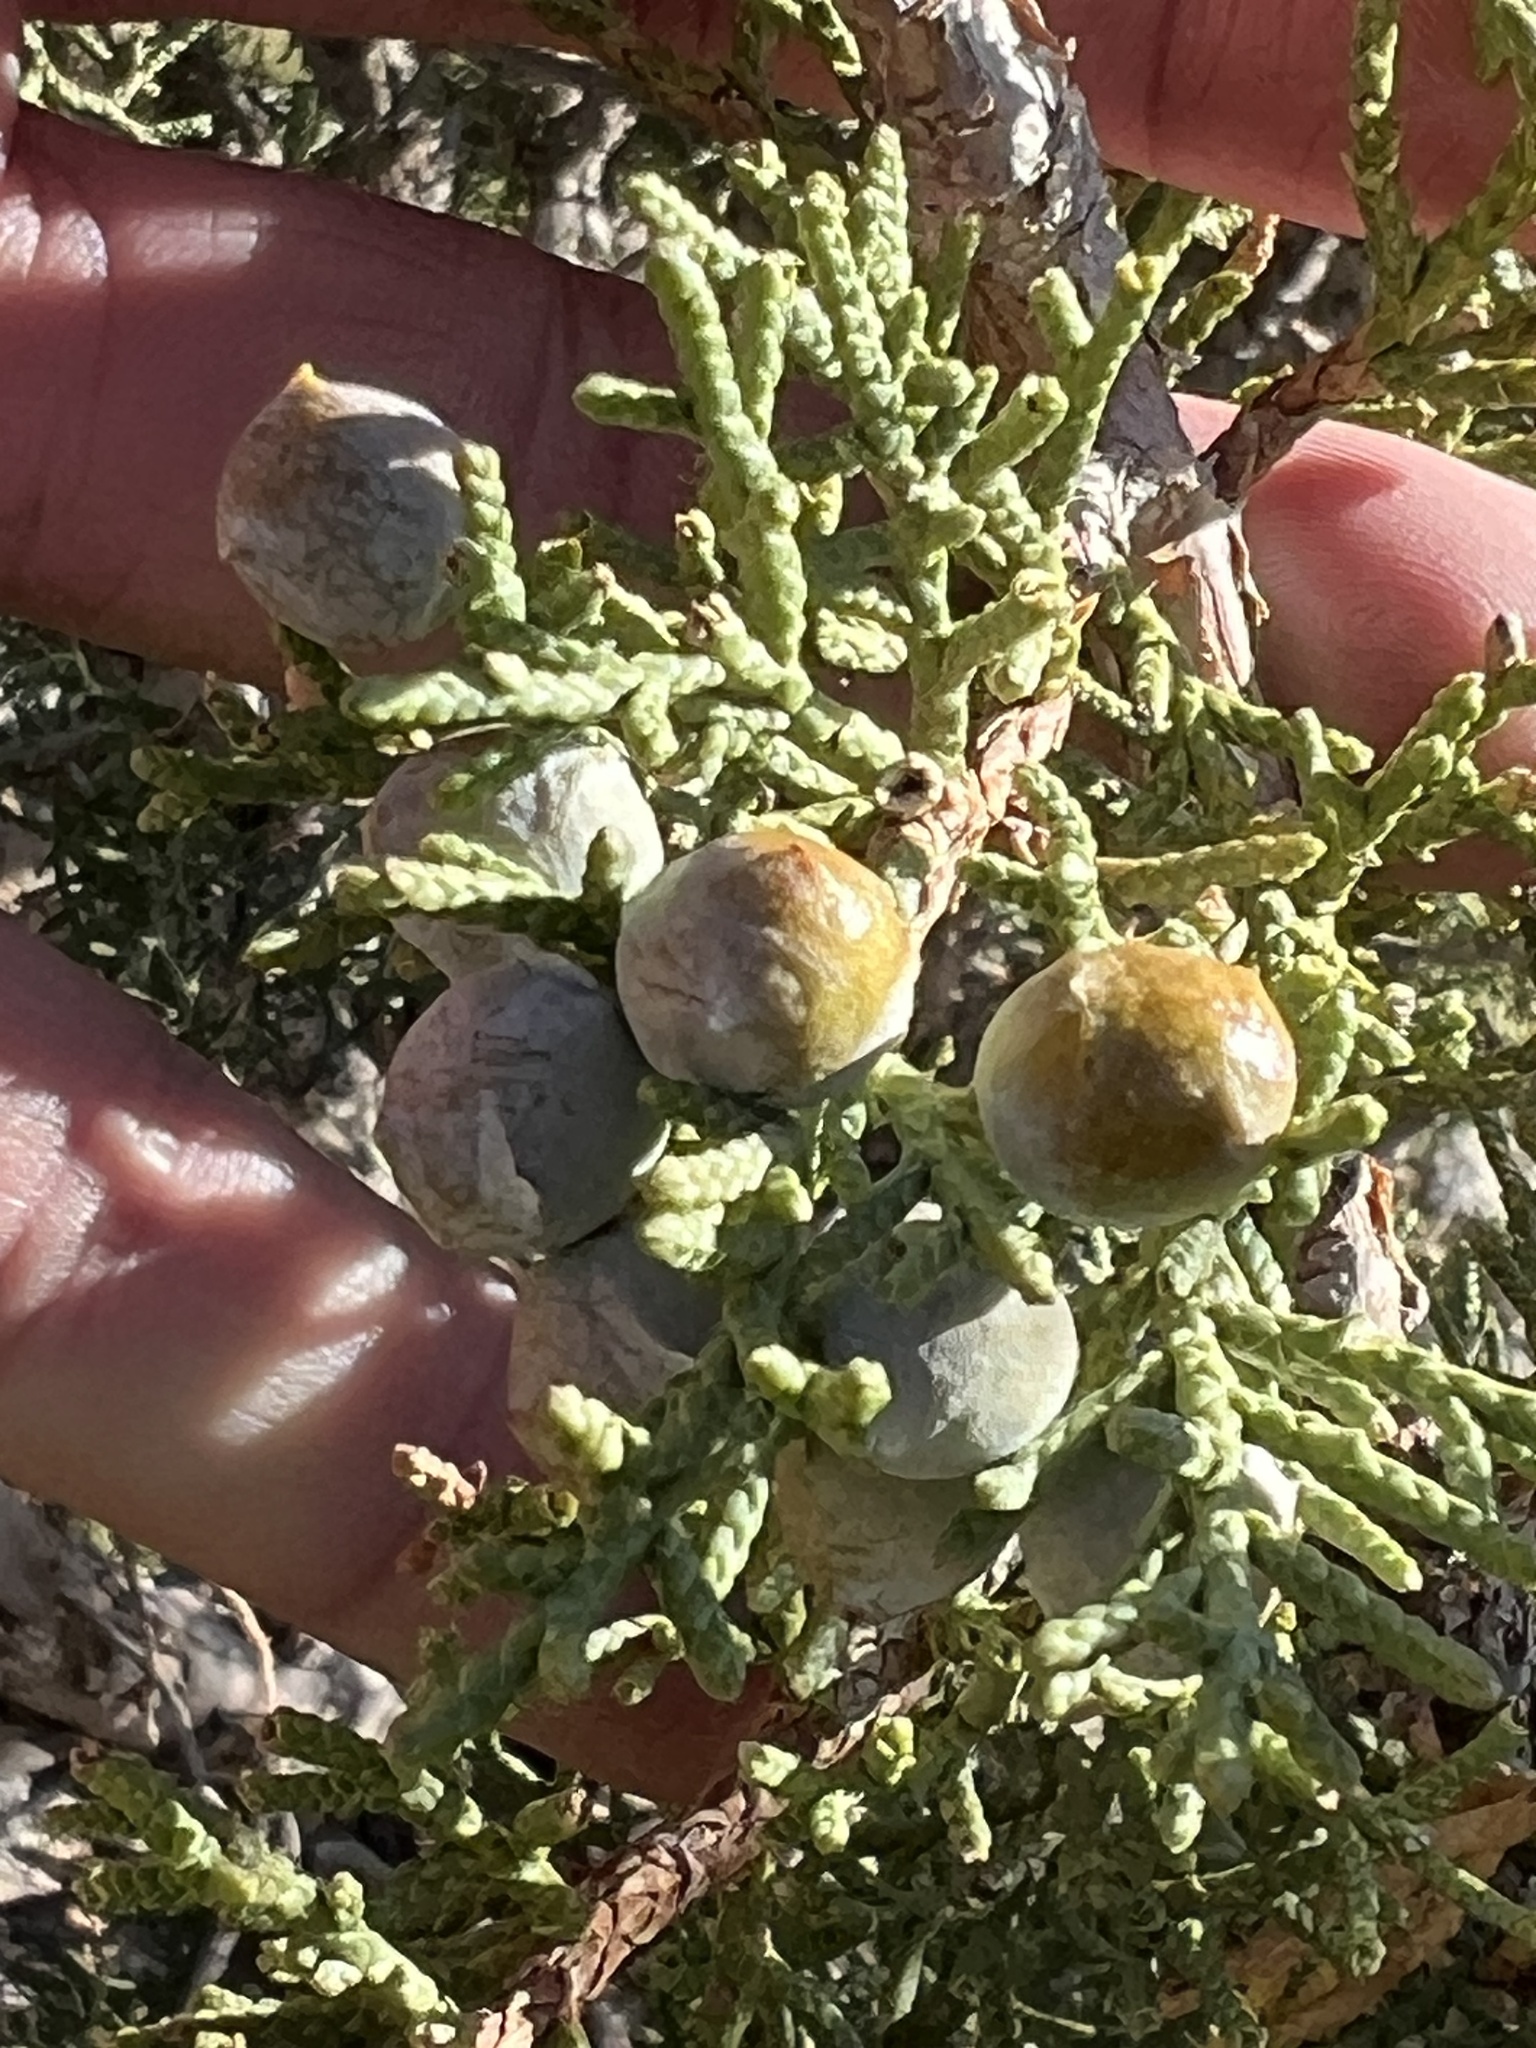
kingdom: Plantae
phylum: Tracheophyta
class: Pinopsida
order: Pinales
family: Cupressaceae
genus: Juniperus
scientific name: Juniperus osteosperma
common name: Utah juniper
